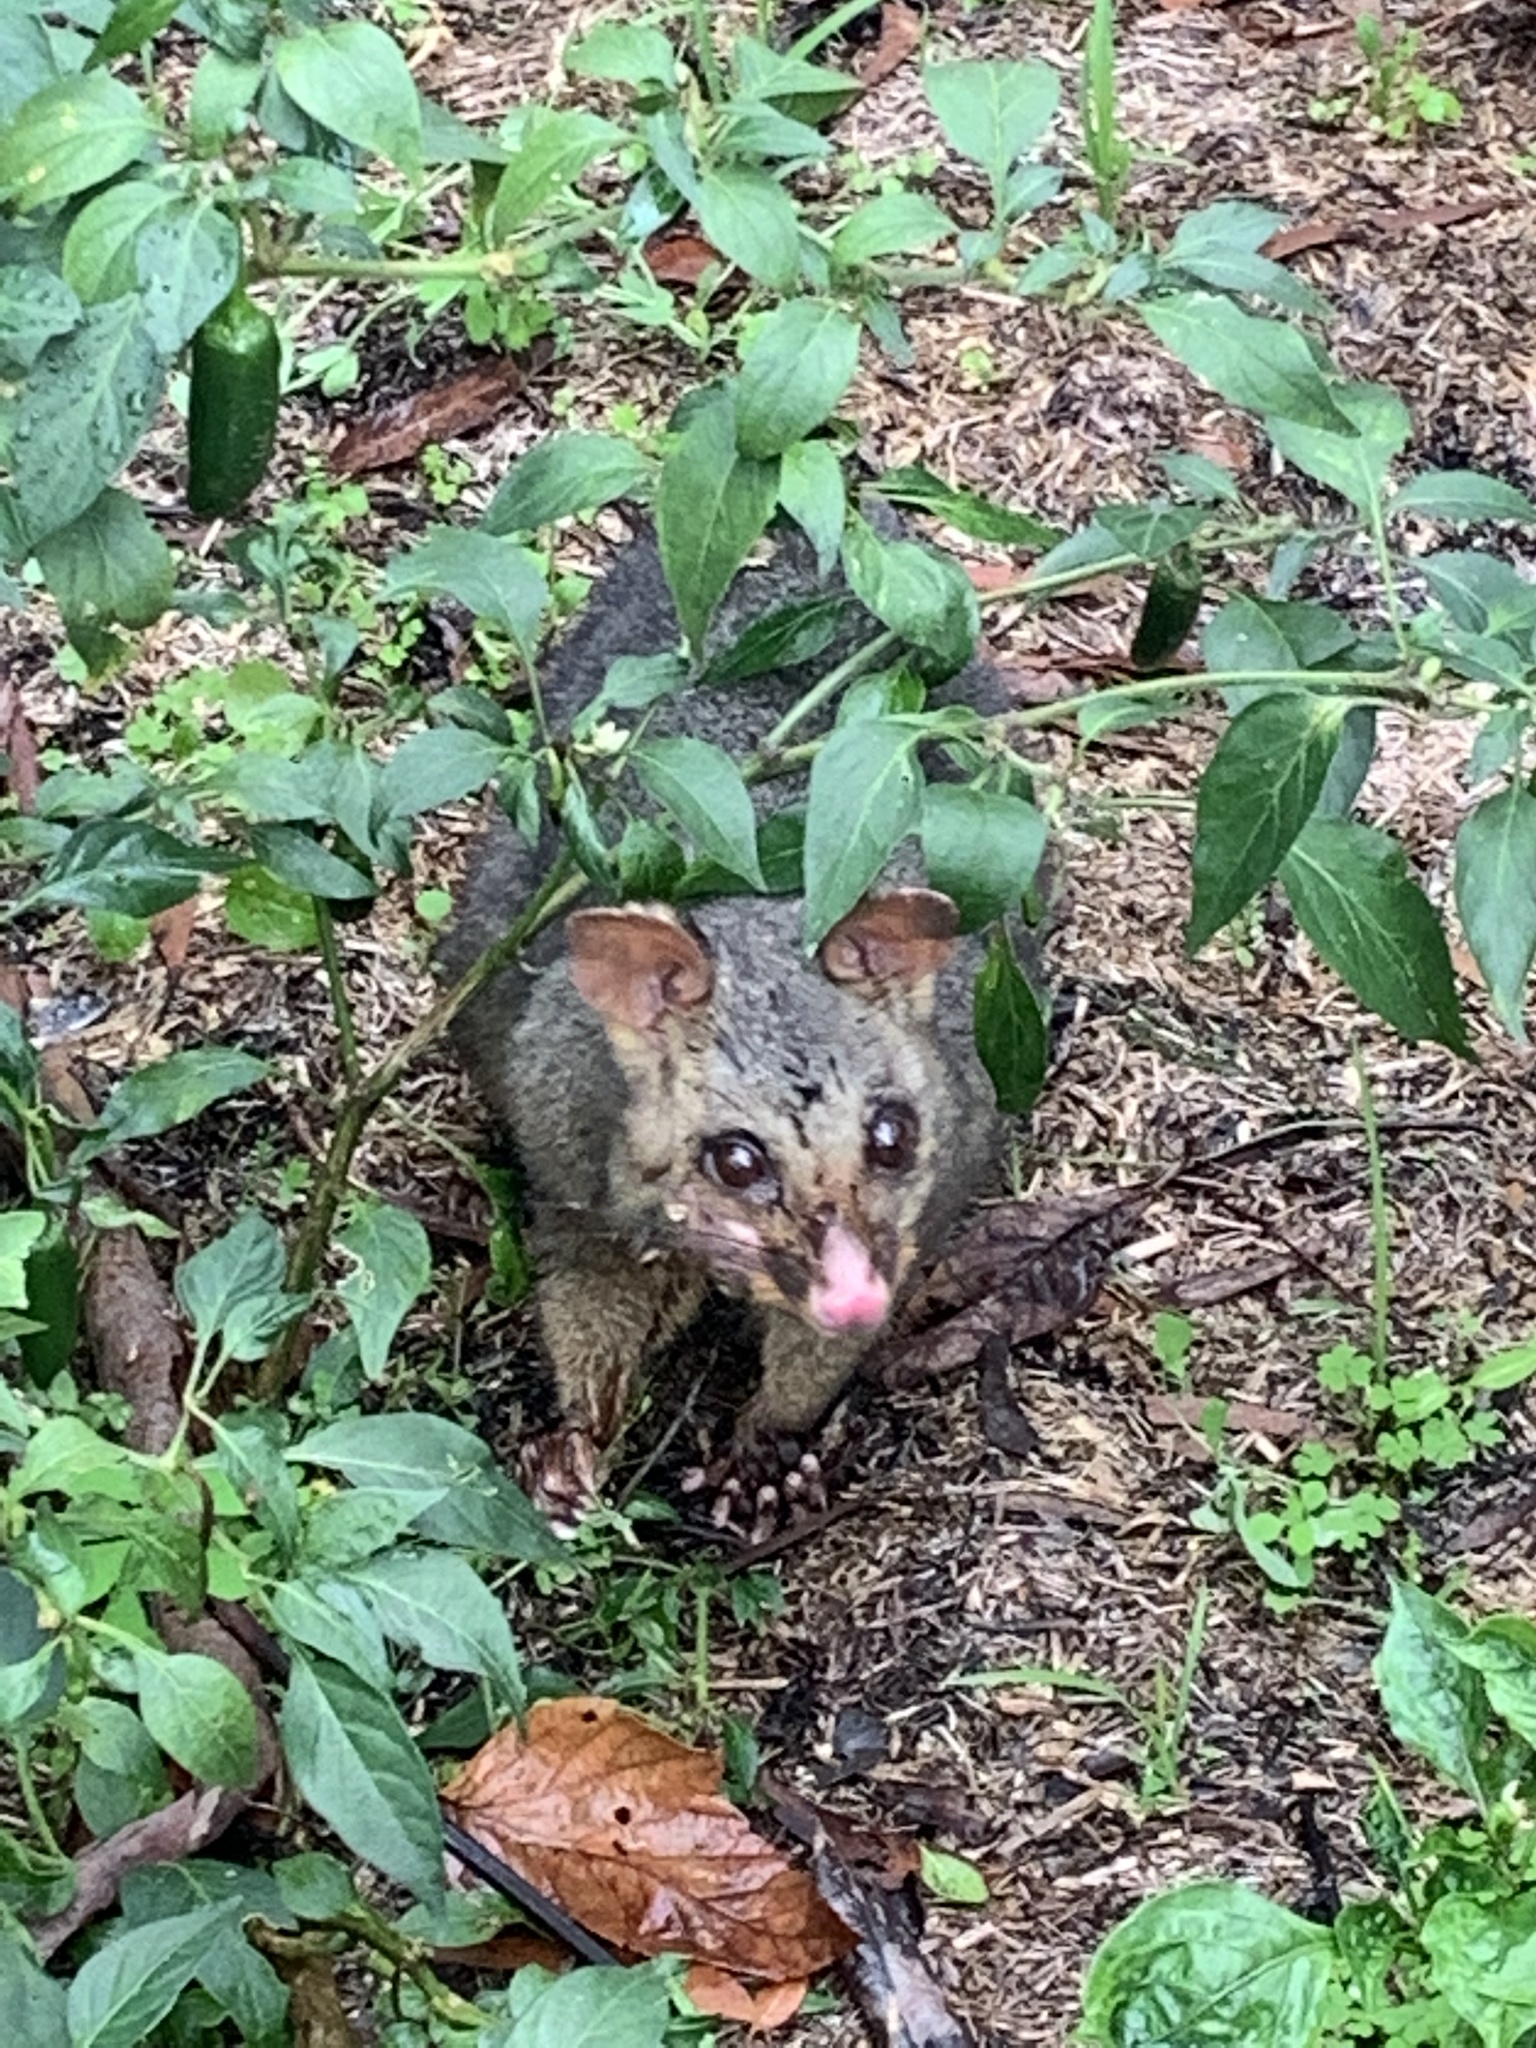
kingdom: Animalia
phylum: Chordata
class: Mammalia
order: Diprotodontia
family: Phalangeridae
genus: Trichosurus
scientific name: Trichosurus vulpecula
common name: Common brushtail
